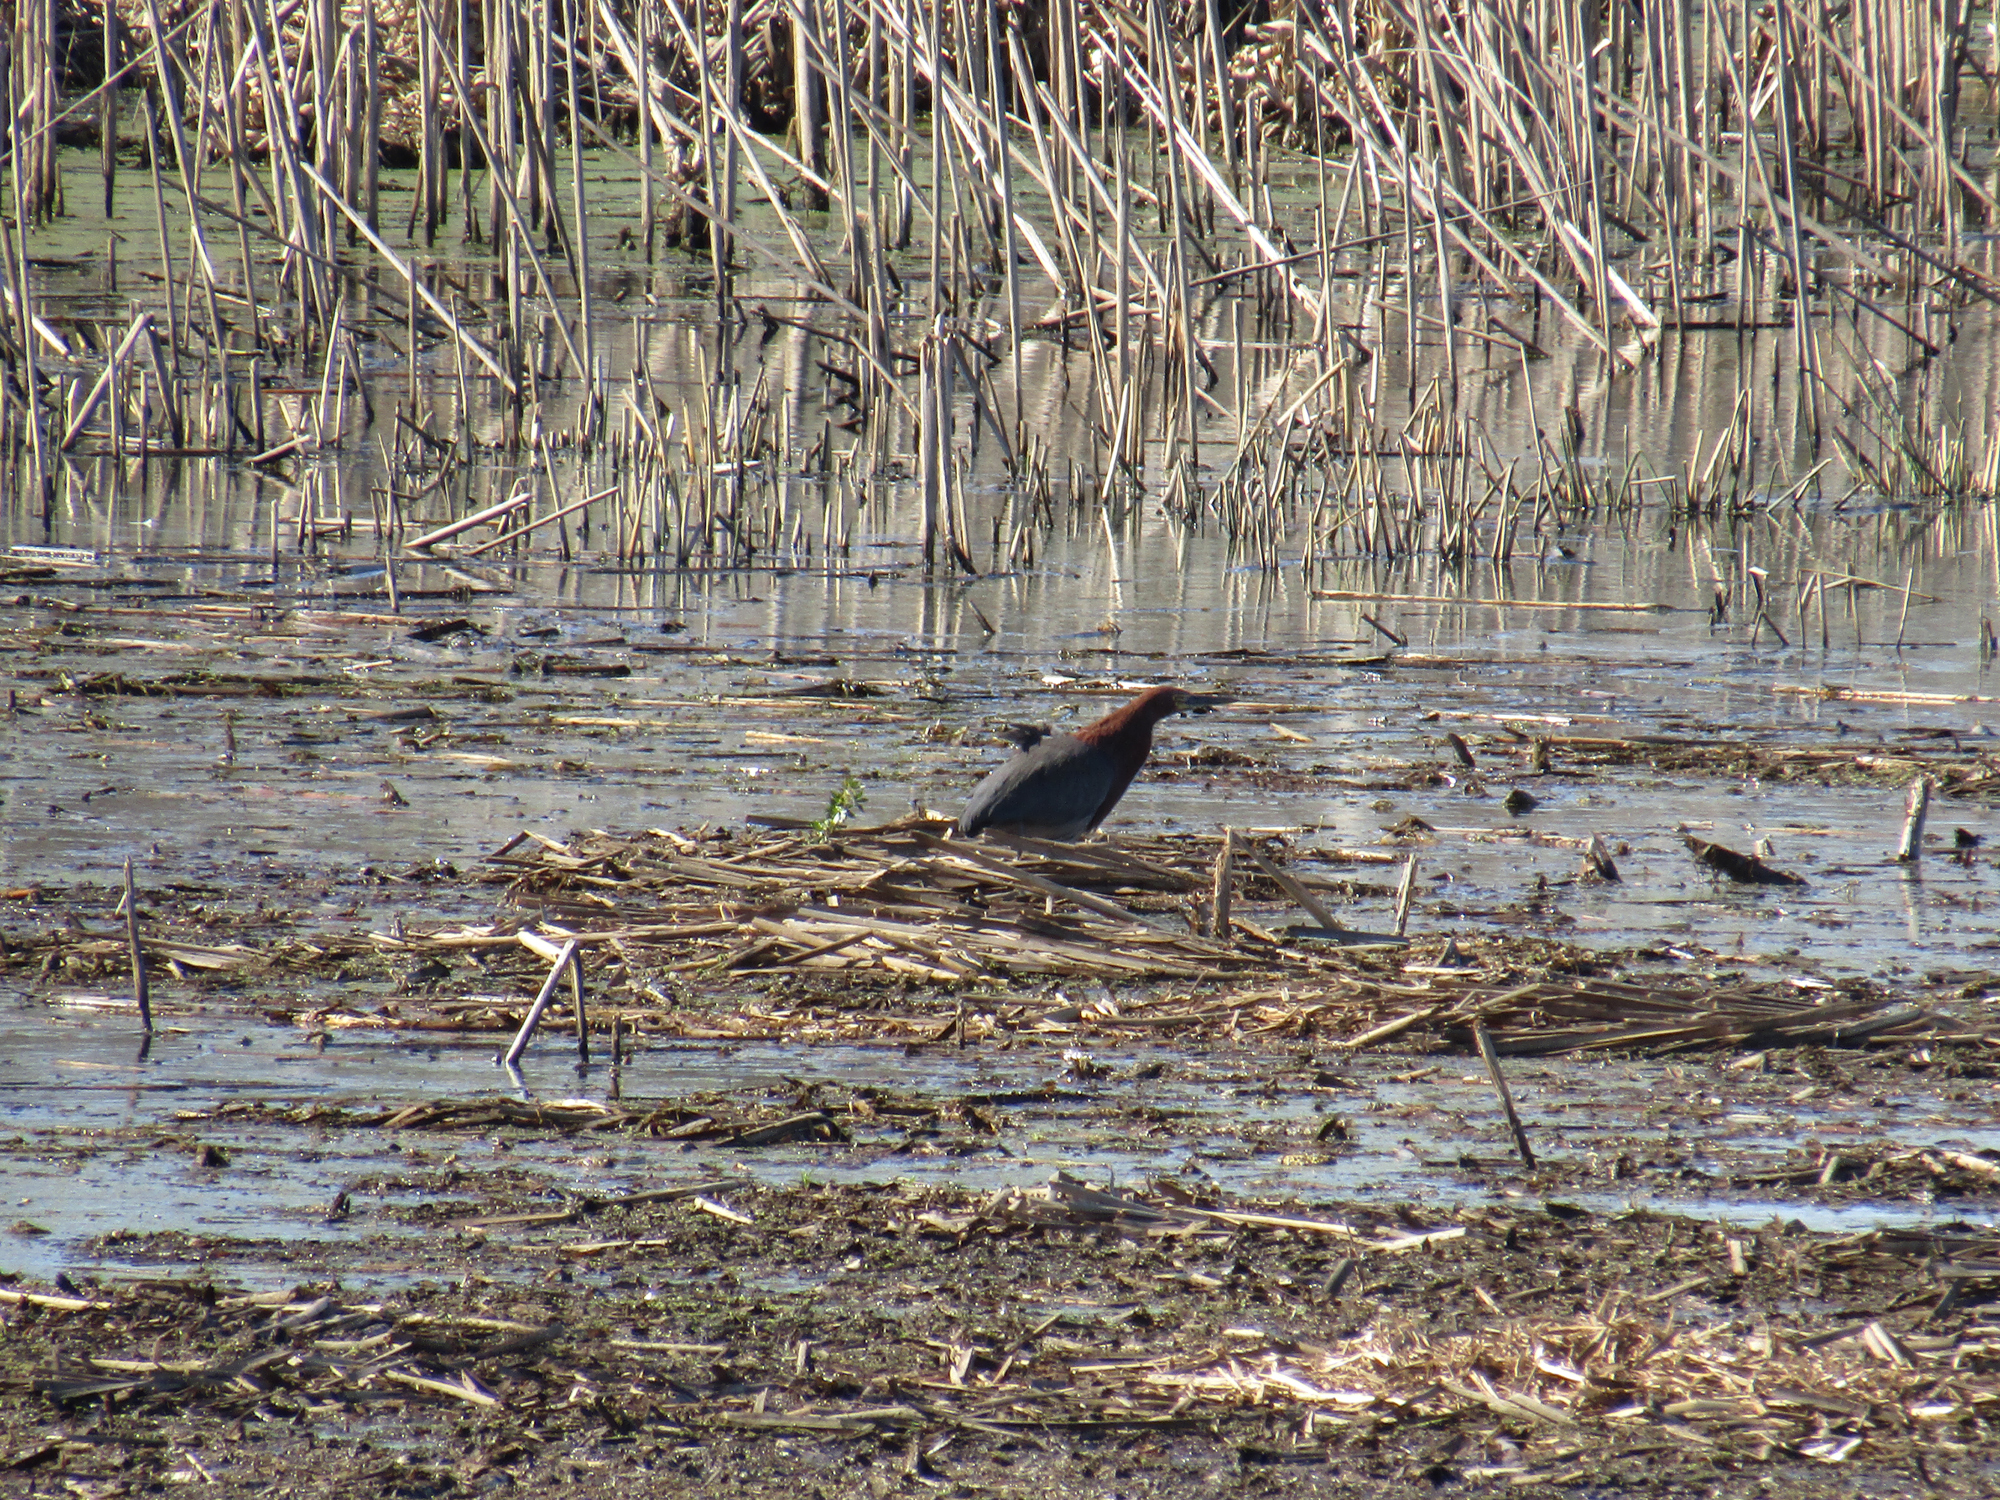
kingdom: Animalia
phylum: Chordata
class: Aves
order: Pelecaniformes
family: Ardeidae
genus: Tigrisoma
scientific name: Tigrisoma lineatum
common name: Rufescent tiger-heron
